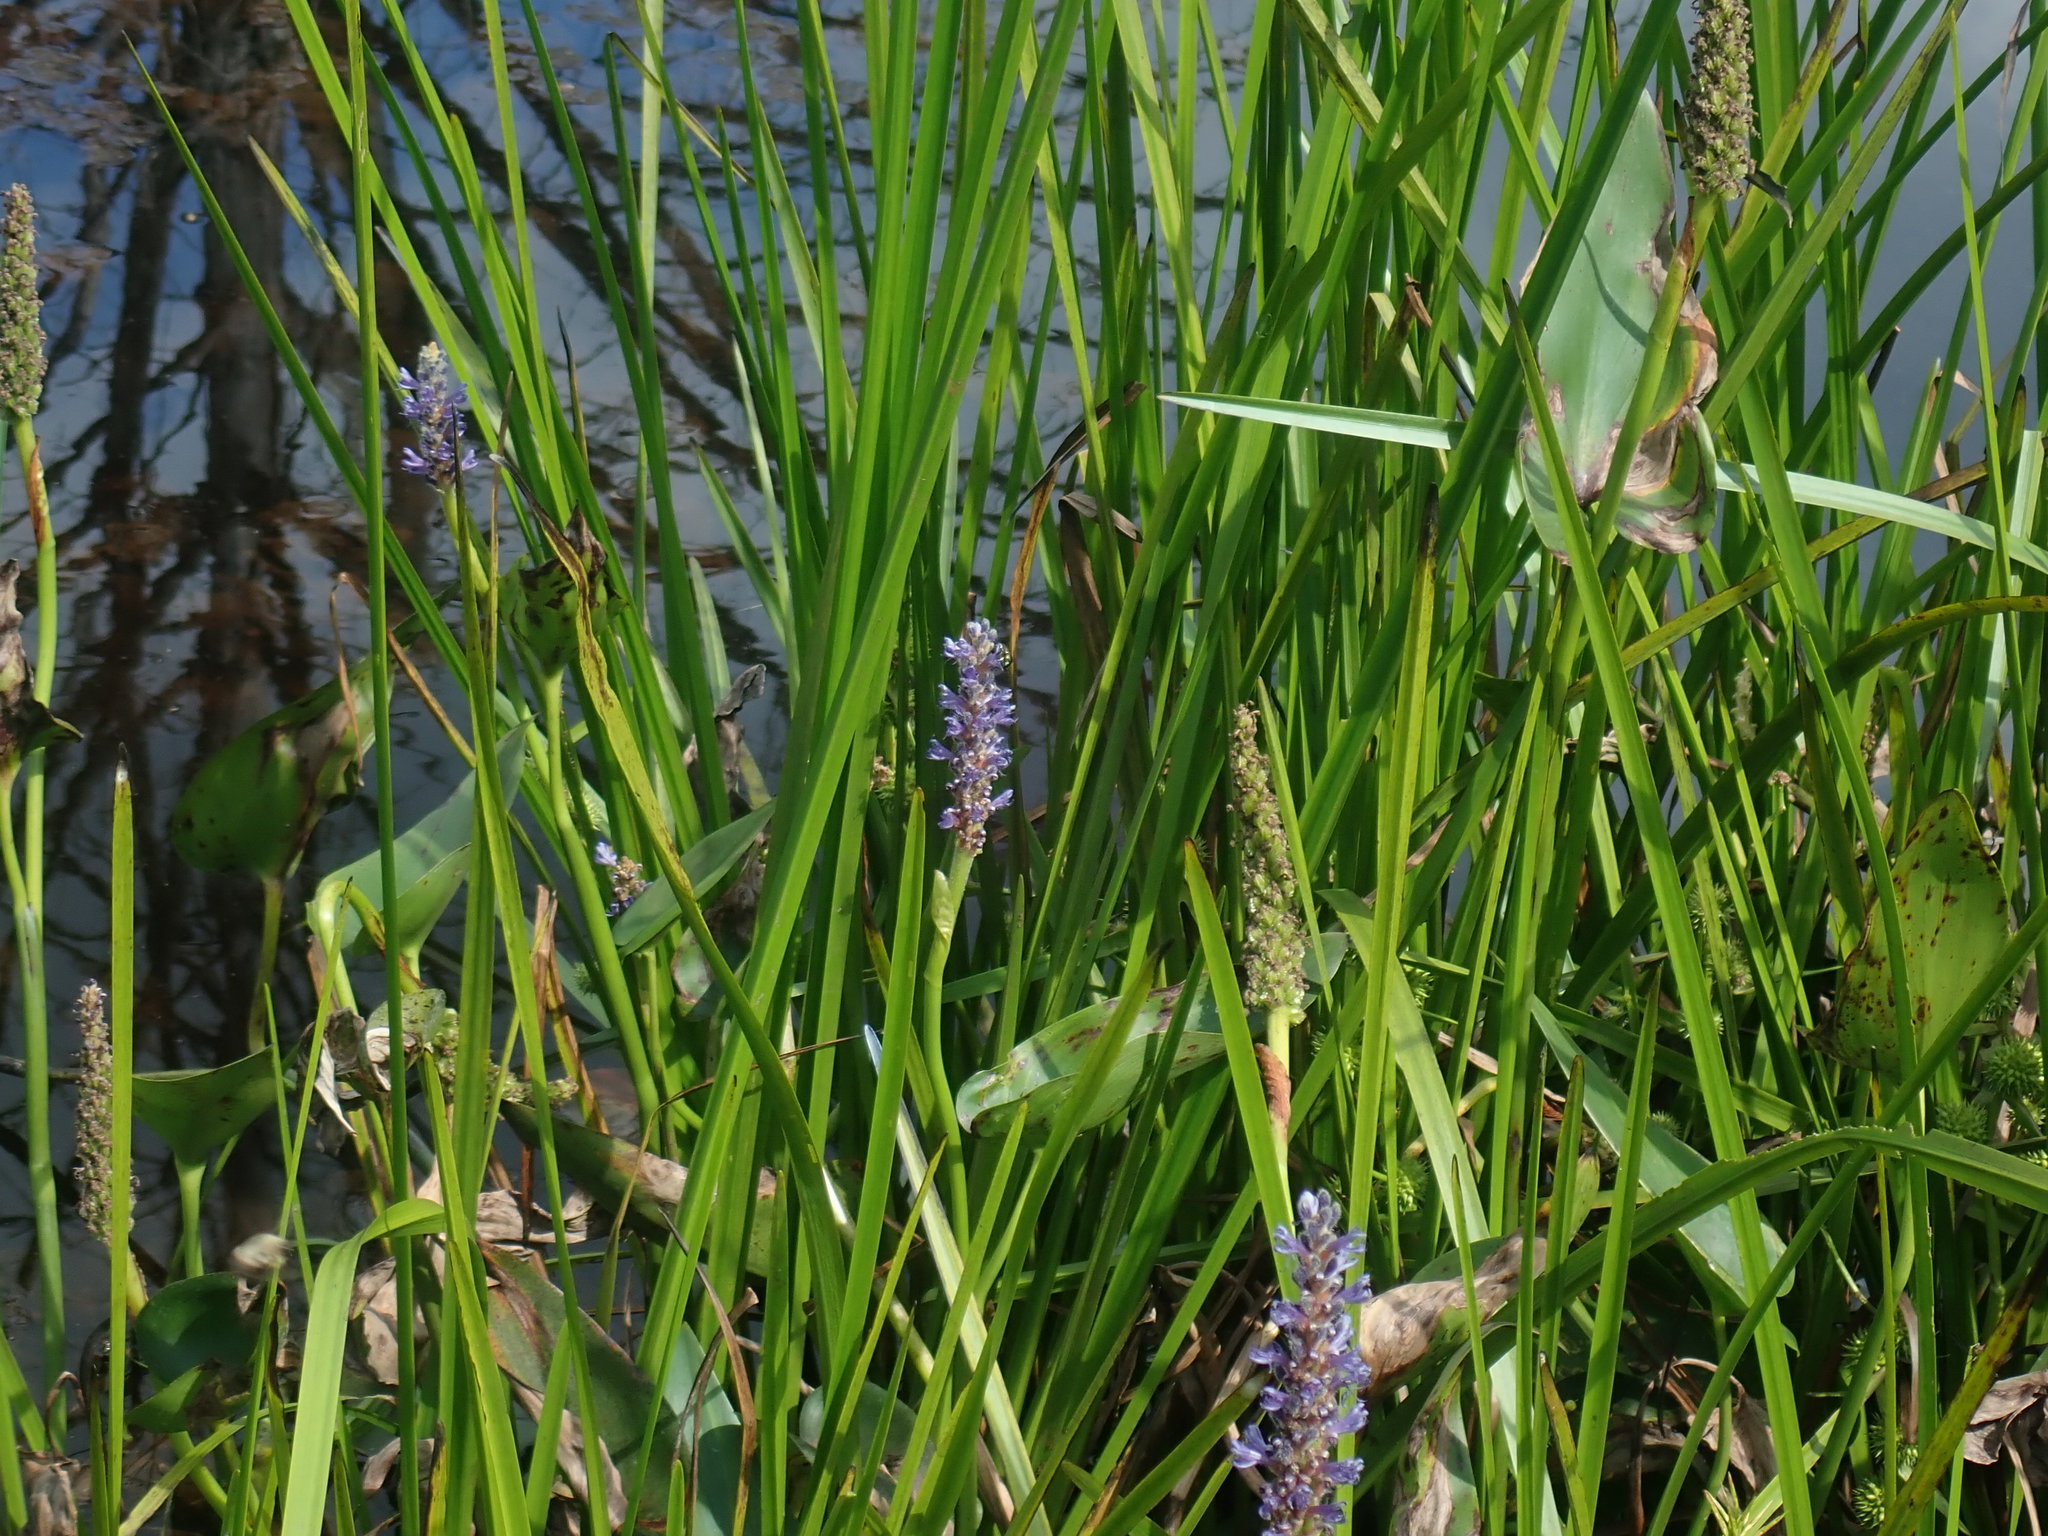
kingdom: Plantae
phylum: Tracheophyta
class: Liliopsida
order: Commelinales
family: Pontederiaceae
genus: Pontederia
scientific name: Pontederia cordata
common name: Pickerelweed
